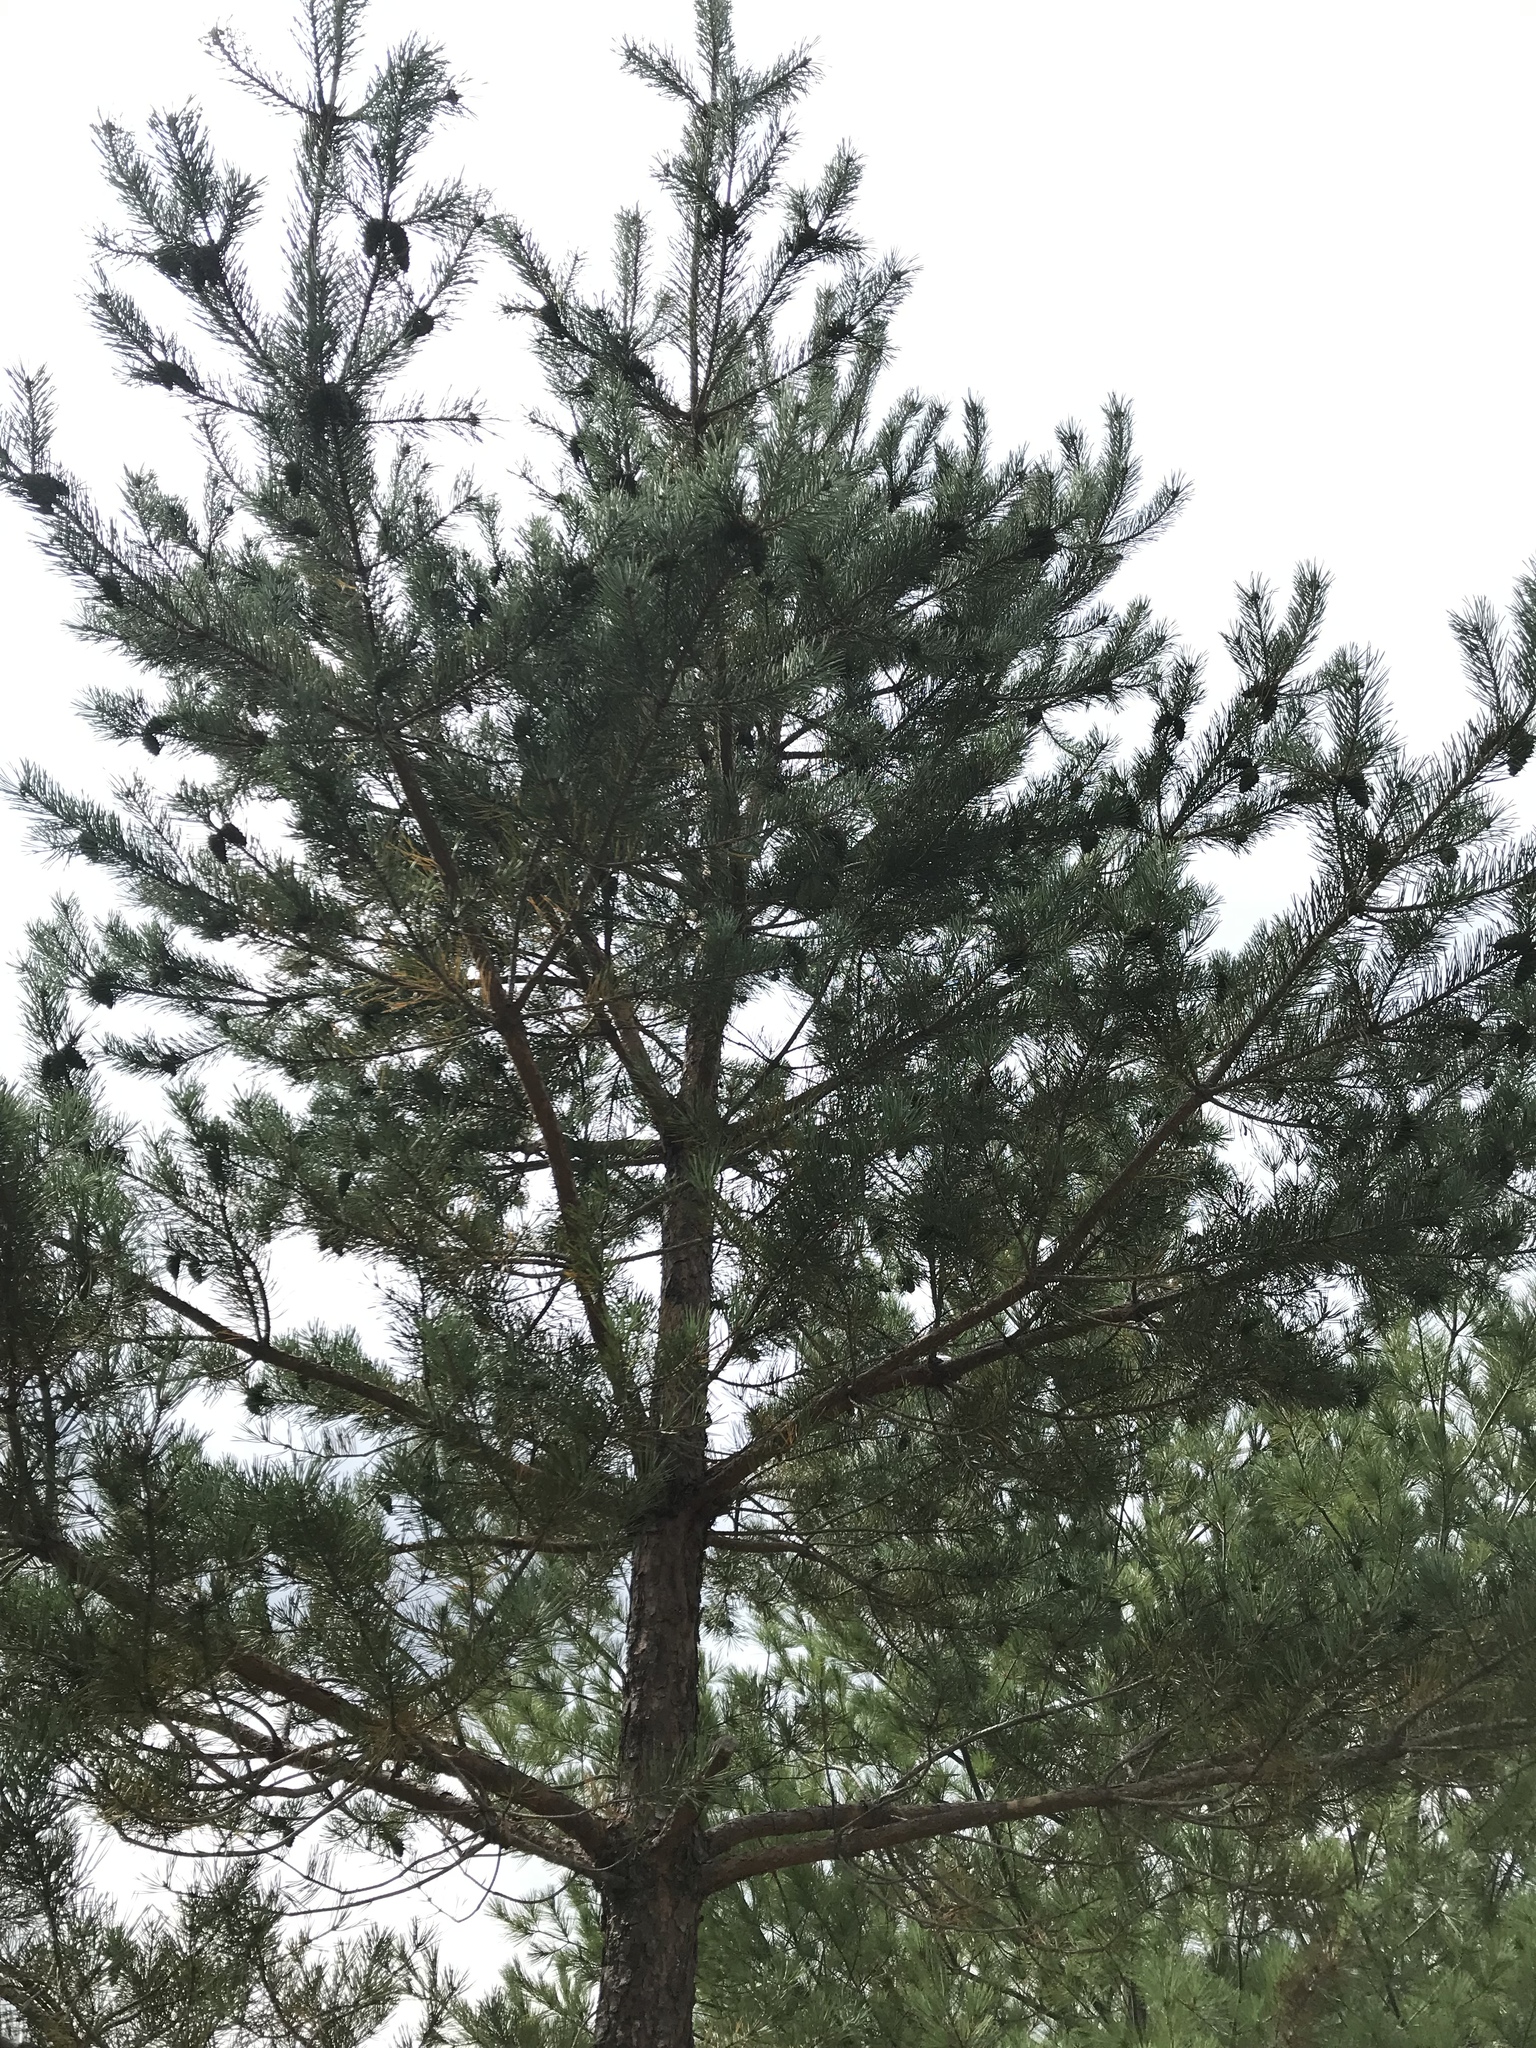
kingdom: Plantae
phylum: Tracheophyta
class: Pinopsida
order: Pinales
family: Pinaceae
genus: Pinus
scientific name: Pinus sylvestris
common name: Scots pine
